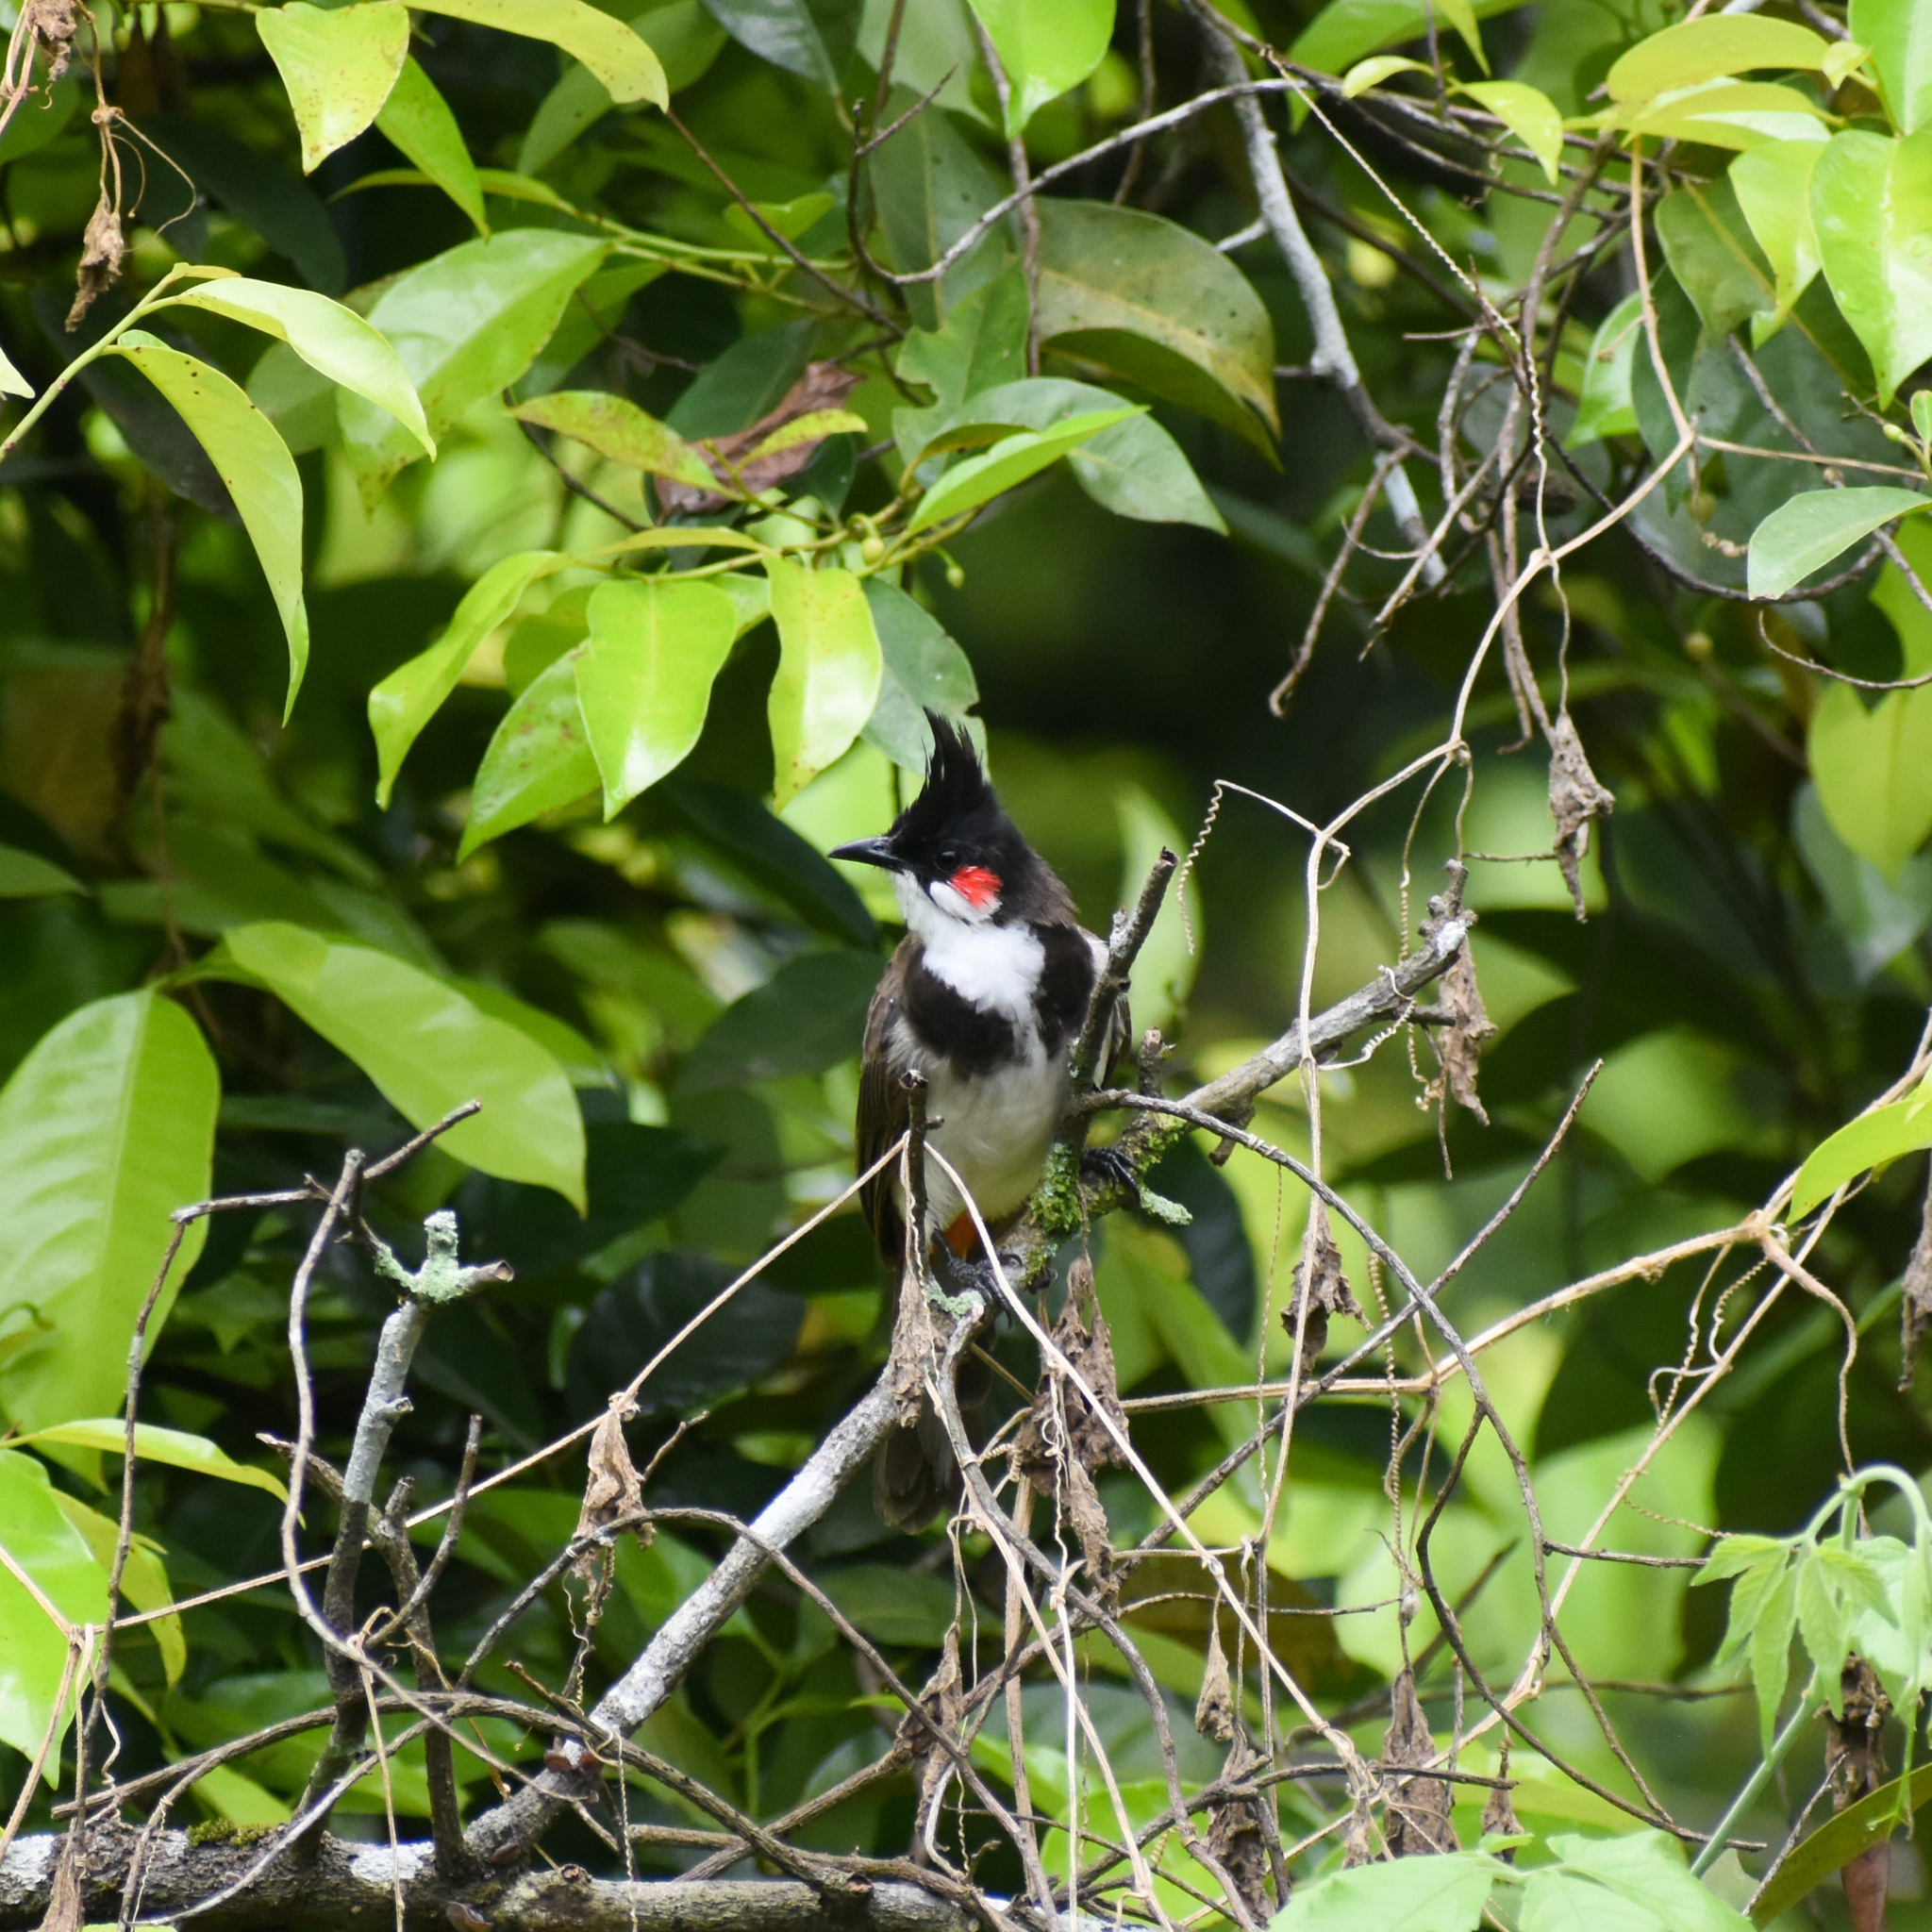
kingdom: Animalia
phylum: Chordata
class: Aves
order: Passeriformes
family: Pycnonotidae
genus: Pycnonotus
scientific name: Pycnonotus jocosus
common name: Red-whiskered bulbul
